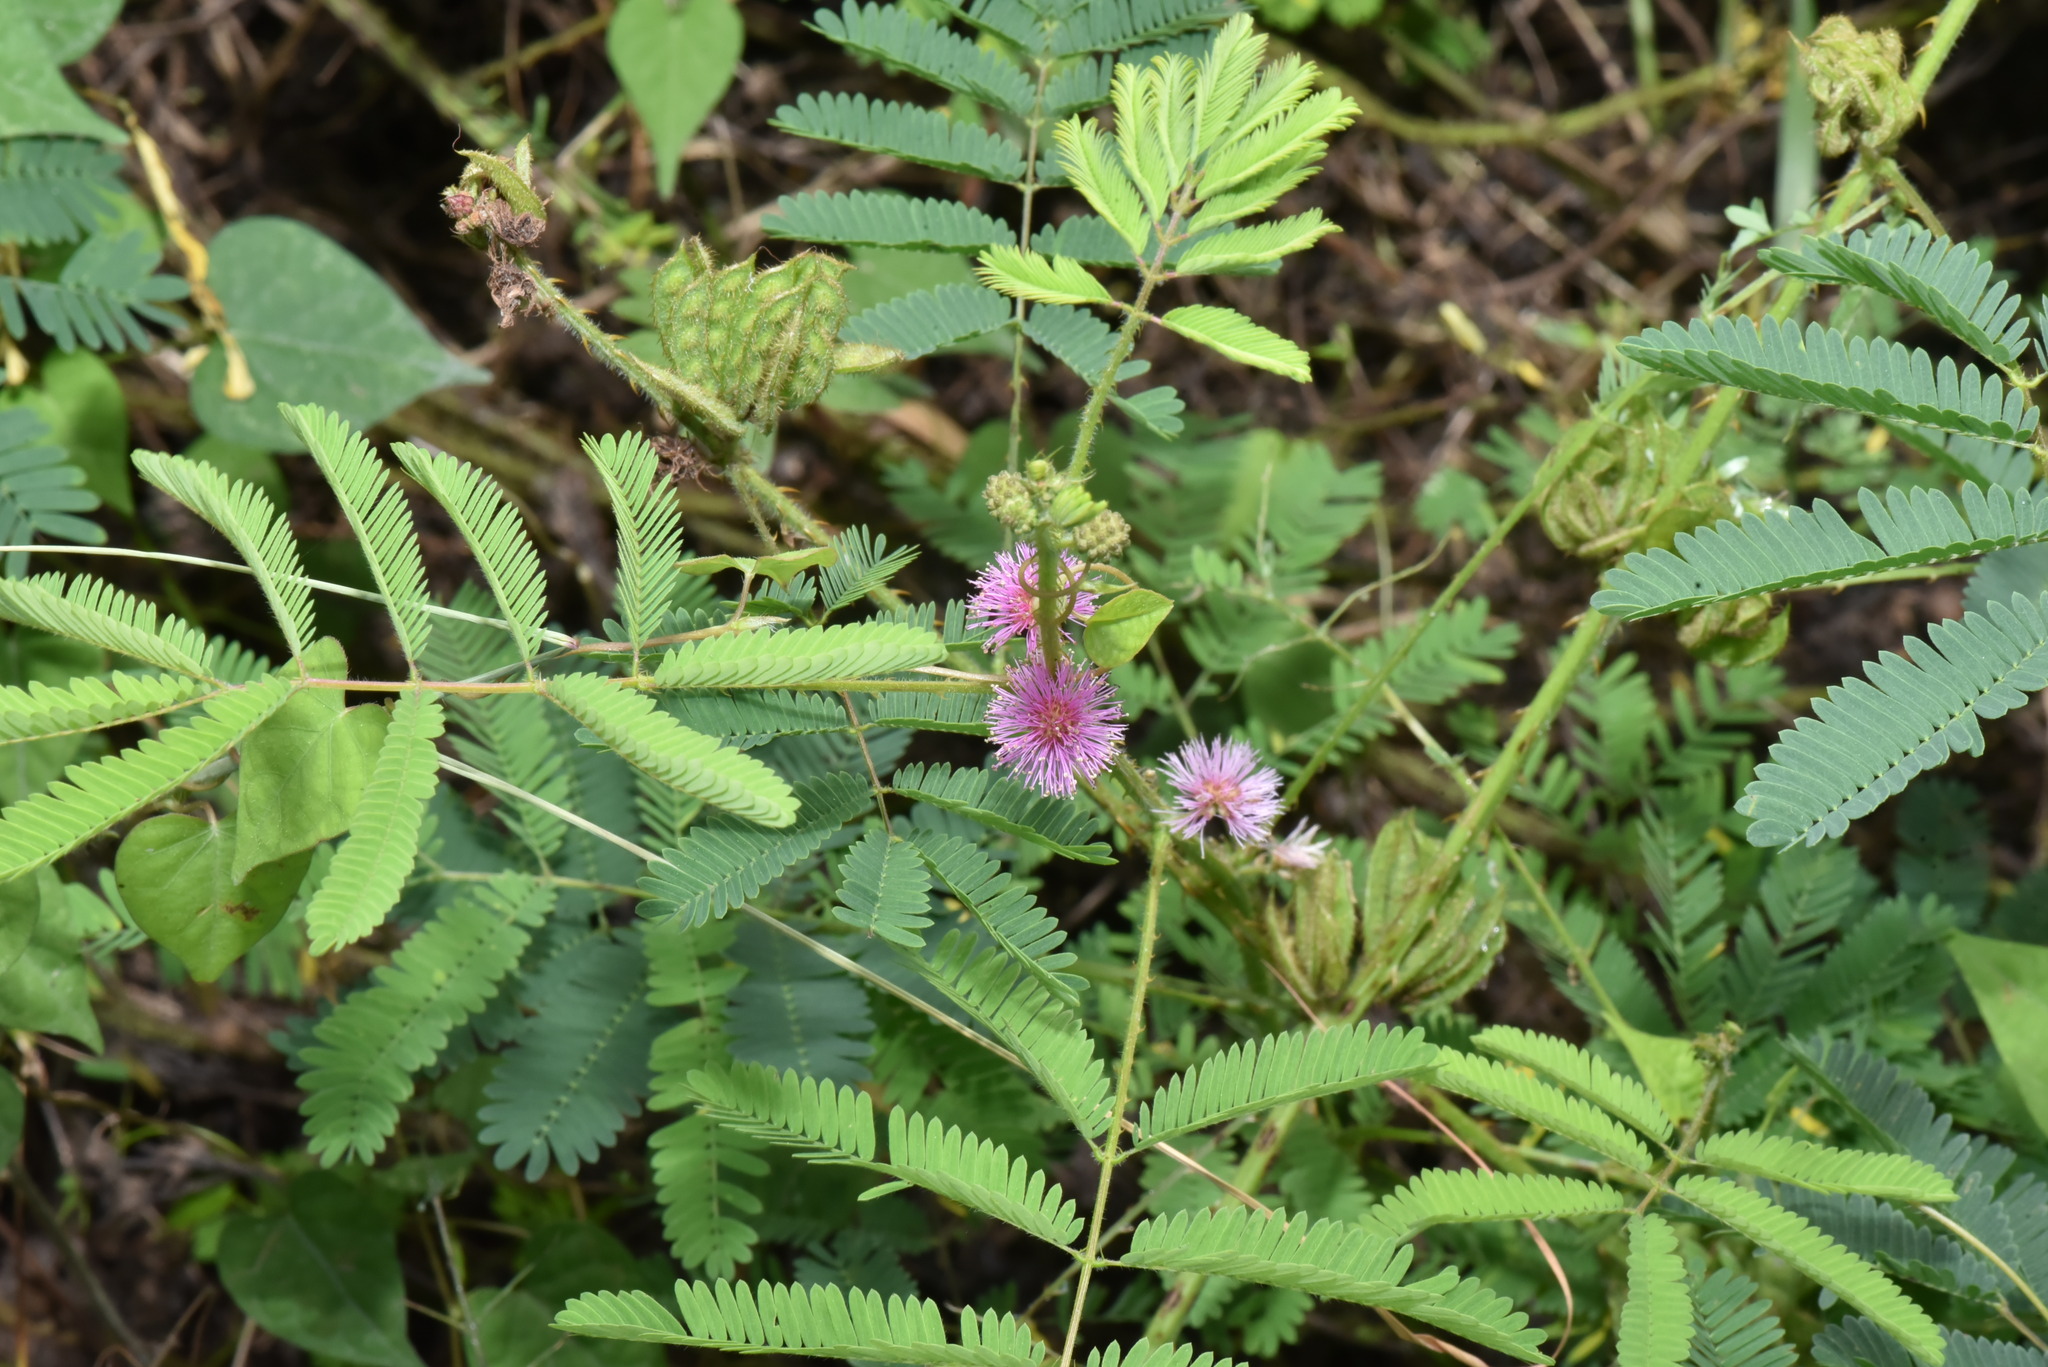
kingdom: Plantae
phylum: Tracheophyta
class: Magnoliopsida
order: Fabales
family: Fabaceae
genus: Mimosa
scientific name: Mimosa diplotricha
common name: Giant sensitive-plant
